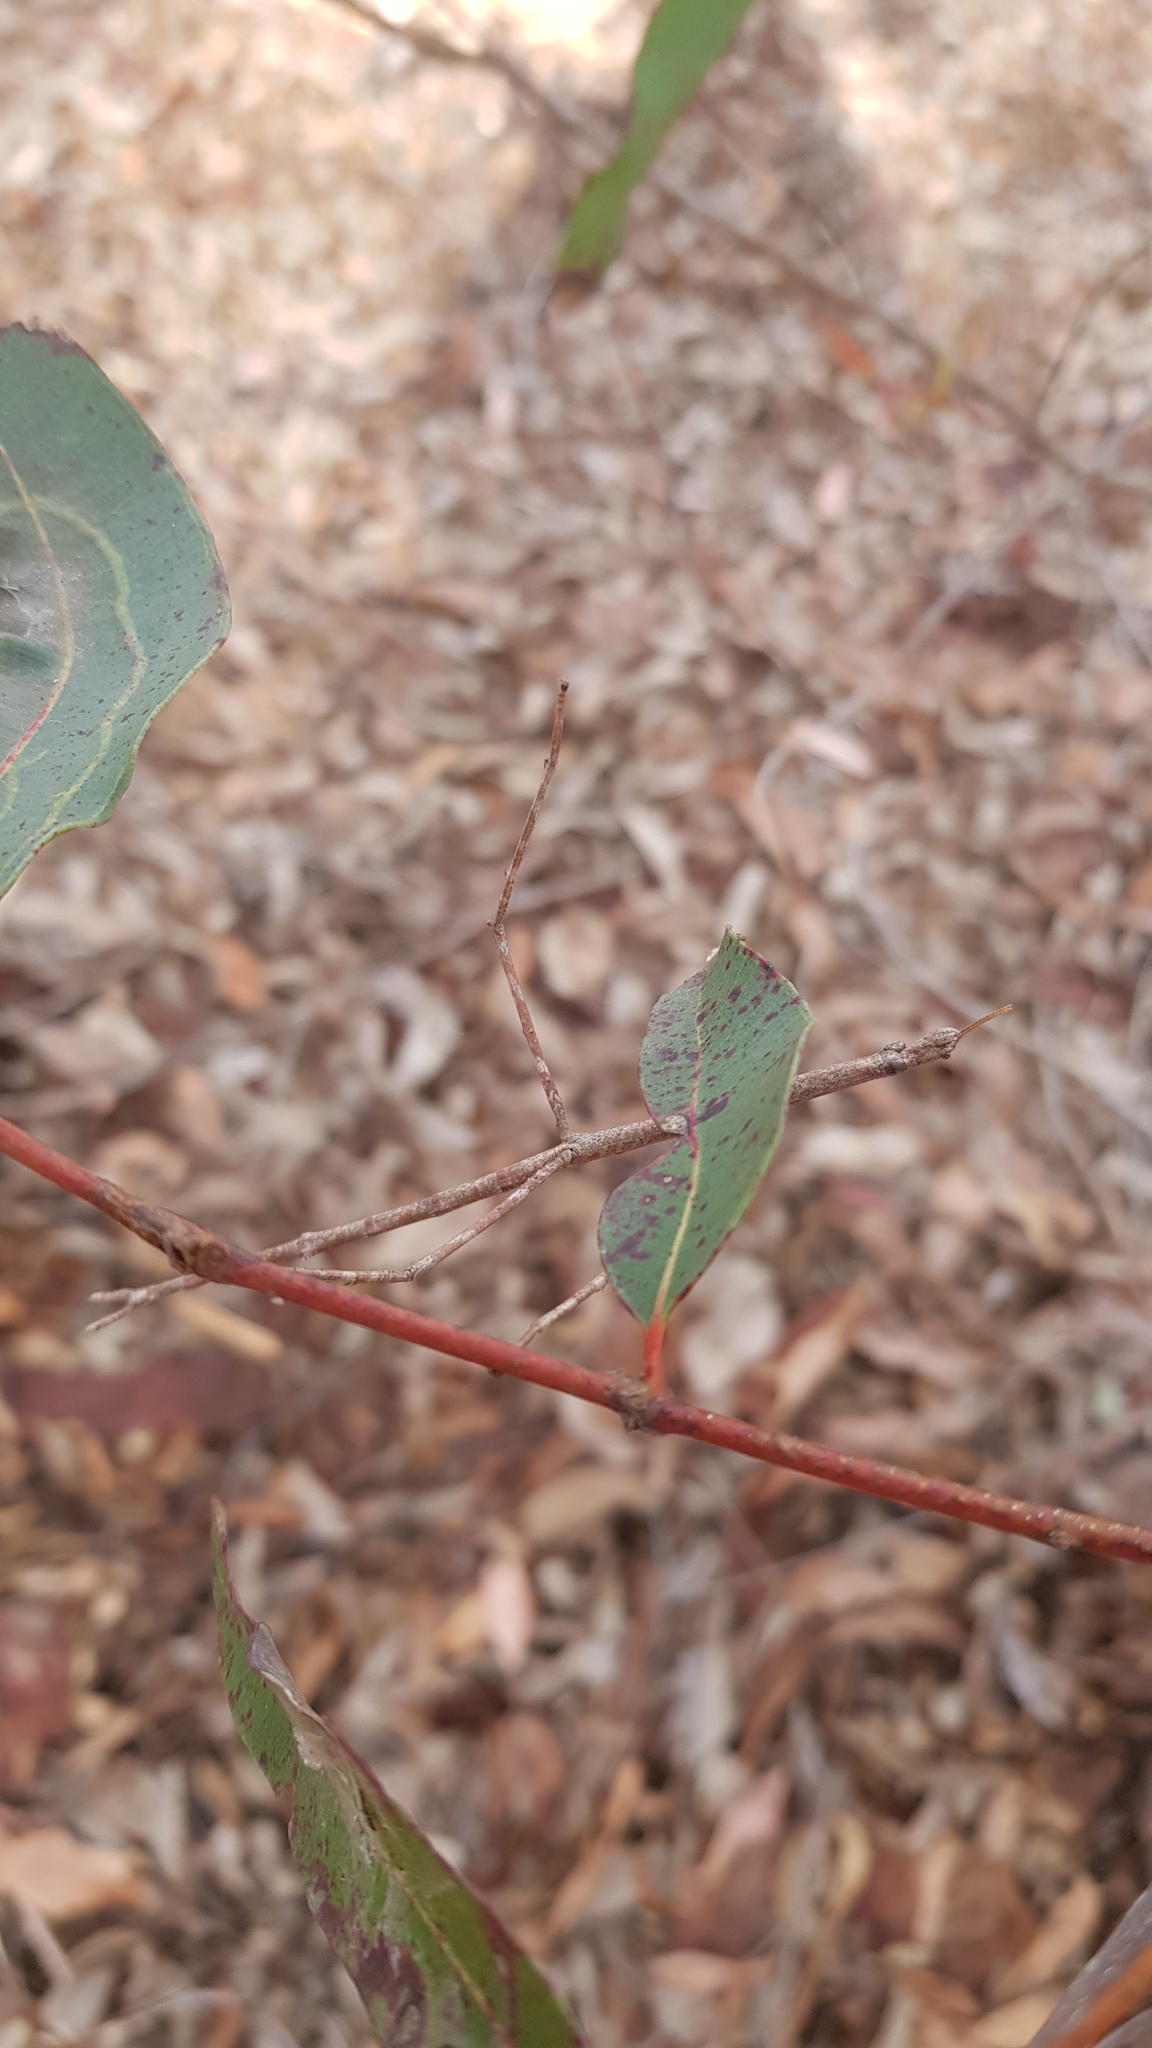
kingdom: Animalia
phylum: Arthropoda
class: Insecta
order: Phasmida
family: Phasmatidae
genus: Ctenomorpha
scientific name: Ctenomorpha marginipennis
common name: Margined-winged stick-insect
